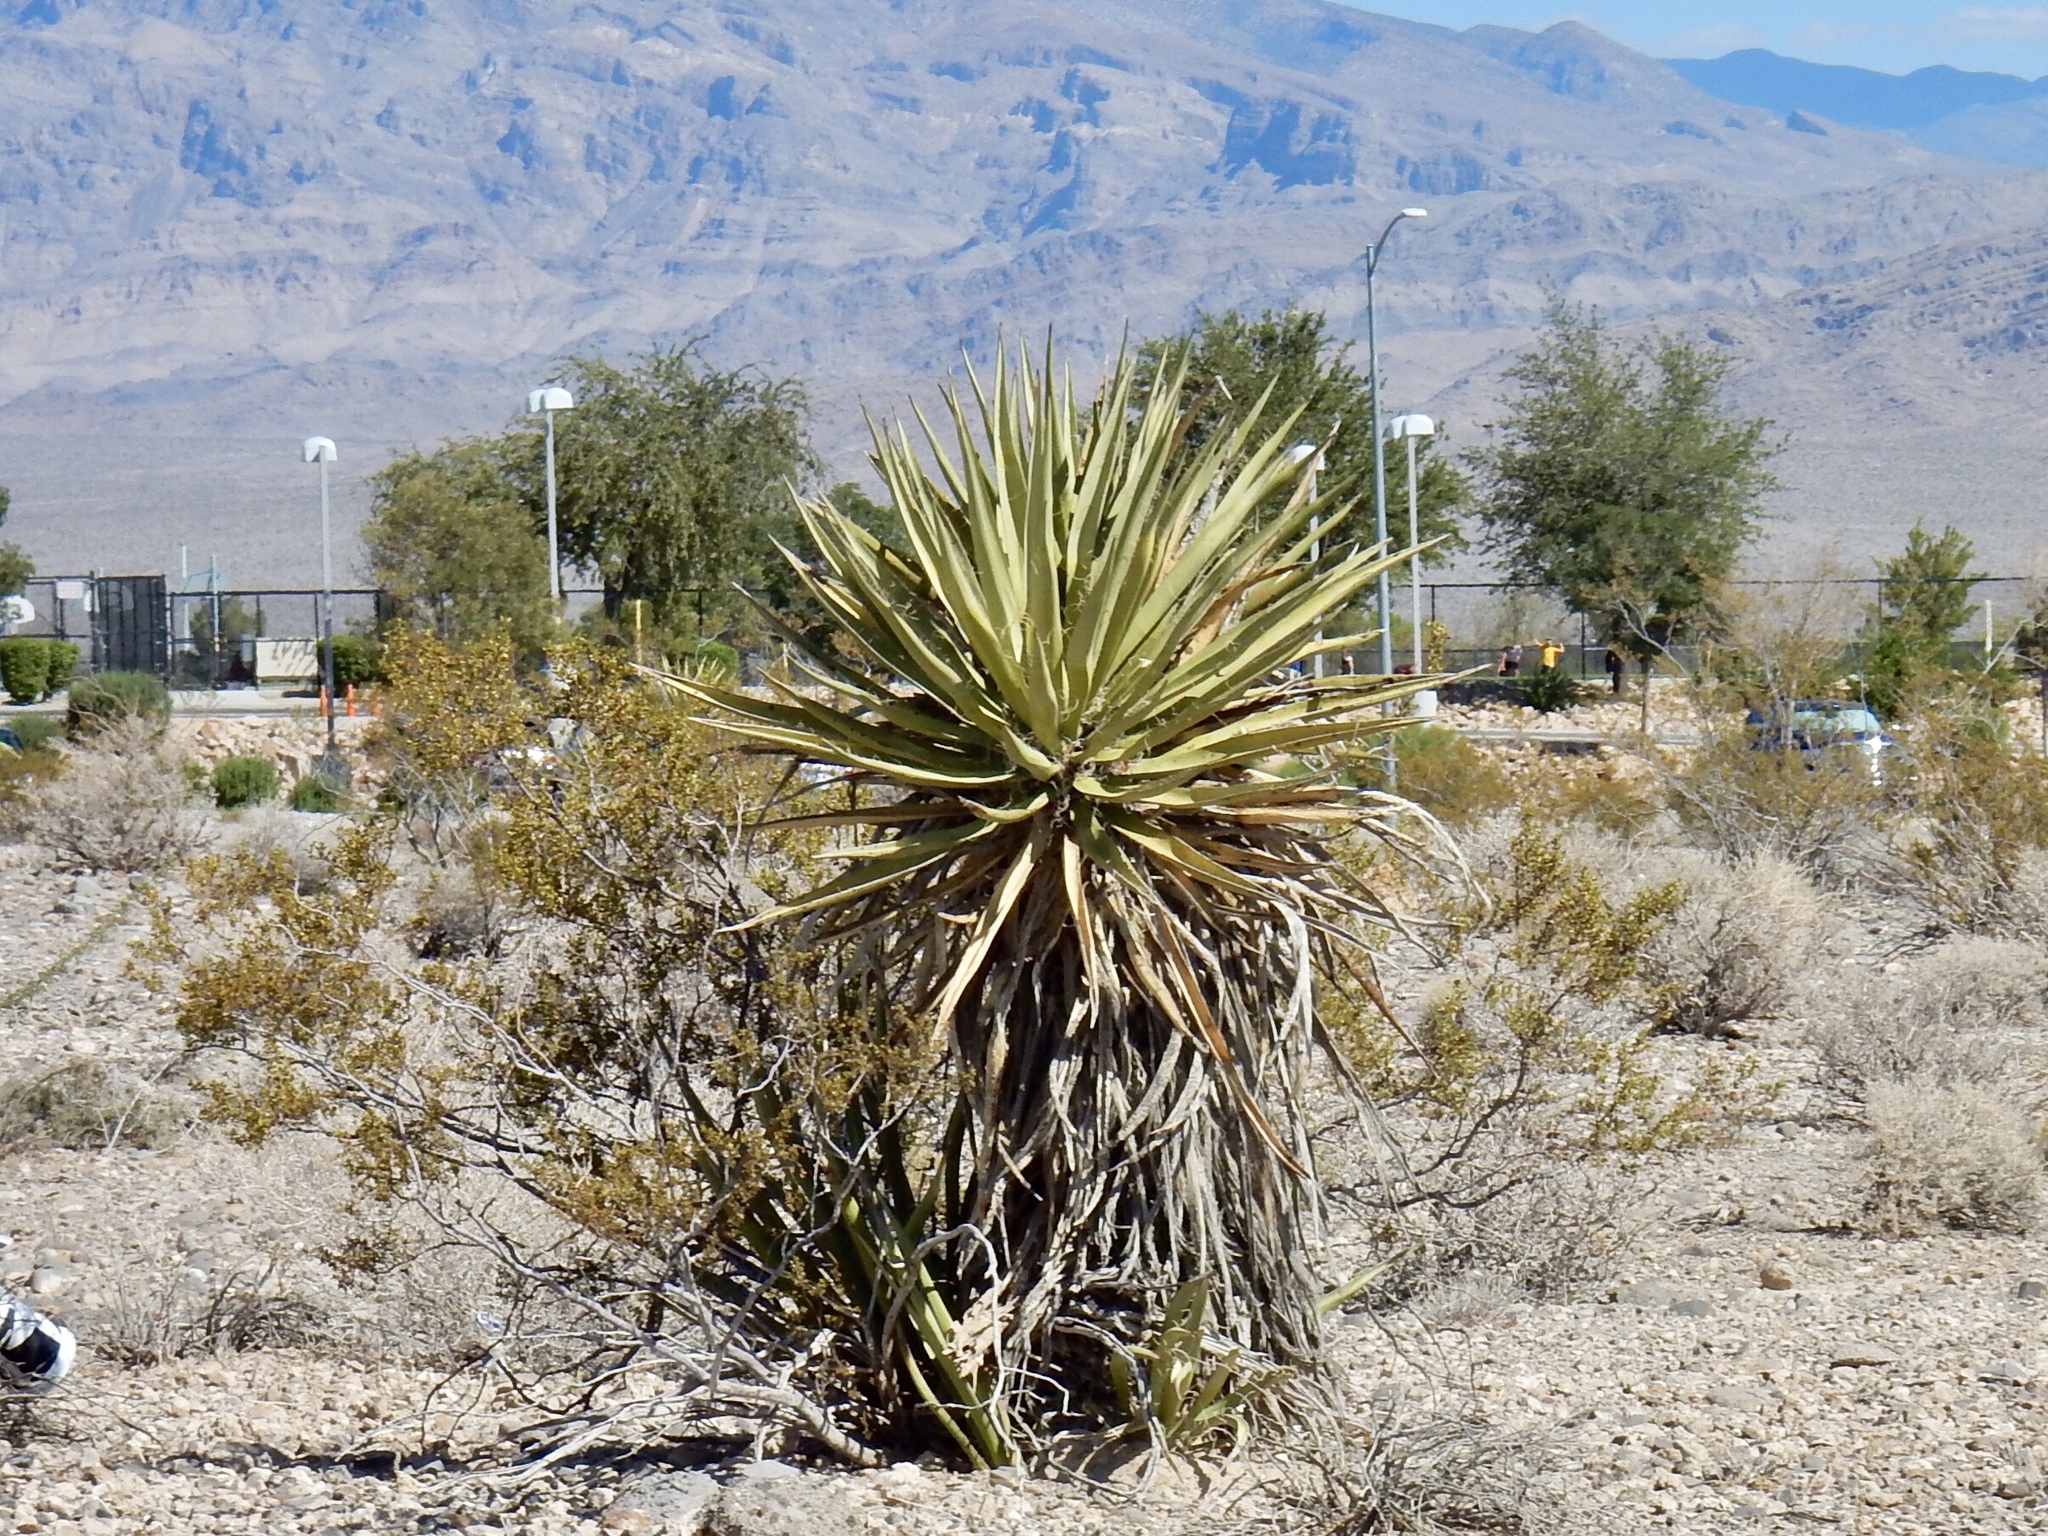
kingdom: Plantae
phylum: Tracheophyta
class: Liliopsida
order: Asparagales
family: Asparagaceae
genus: Yucca
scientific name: Yucca schidigera
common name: Mojave yucca
